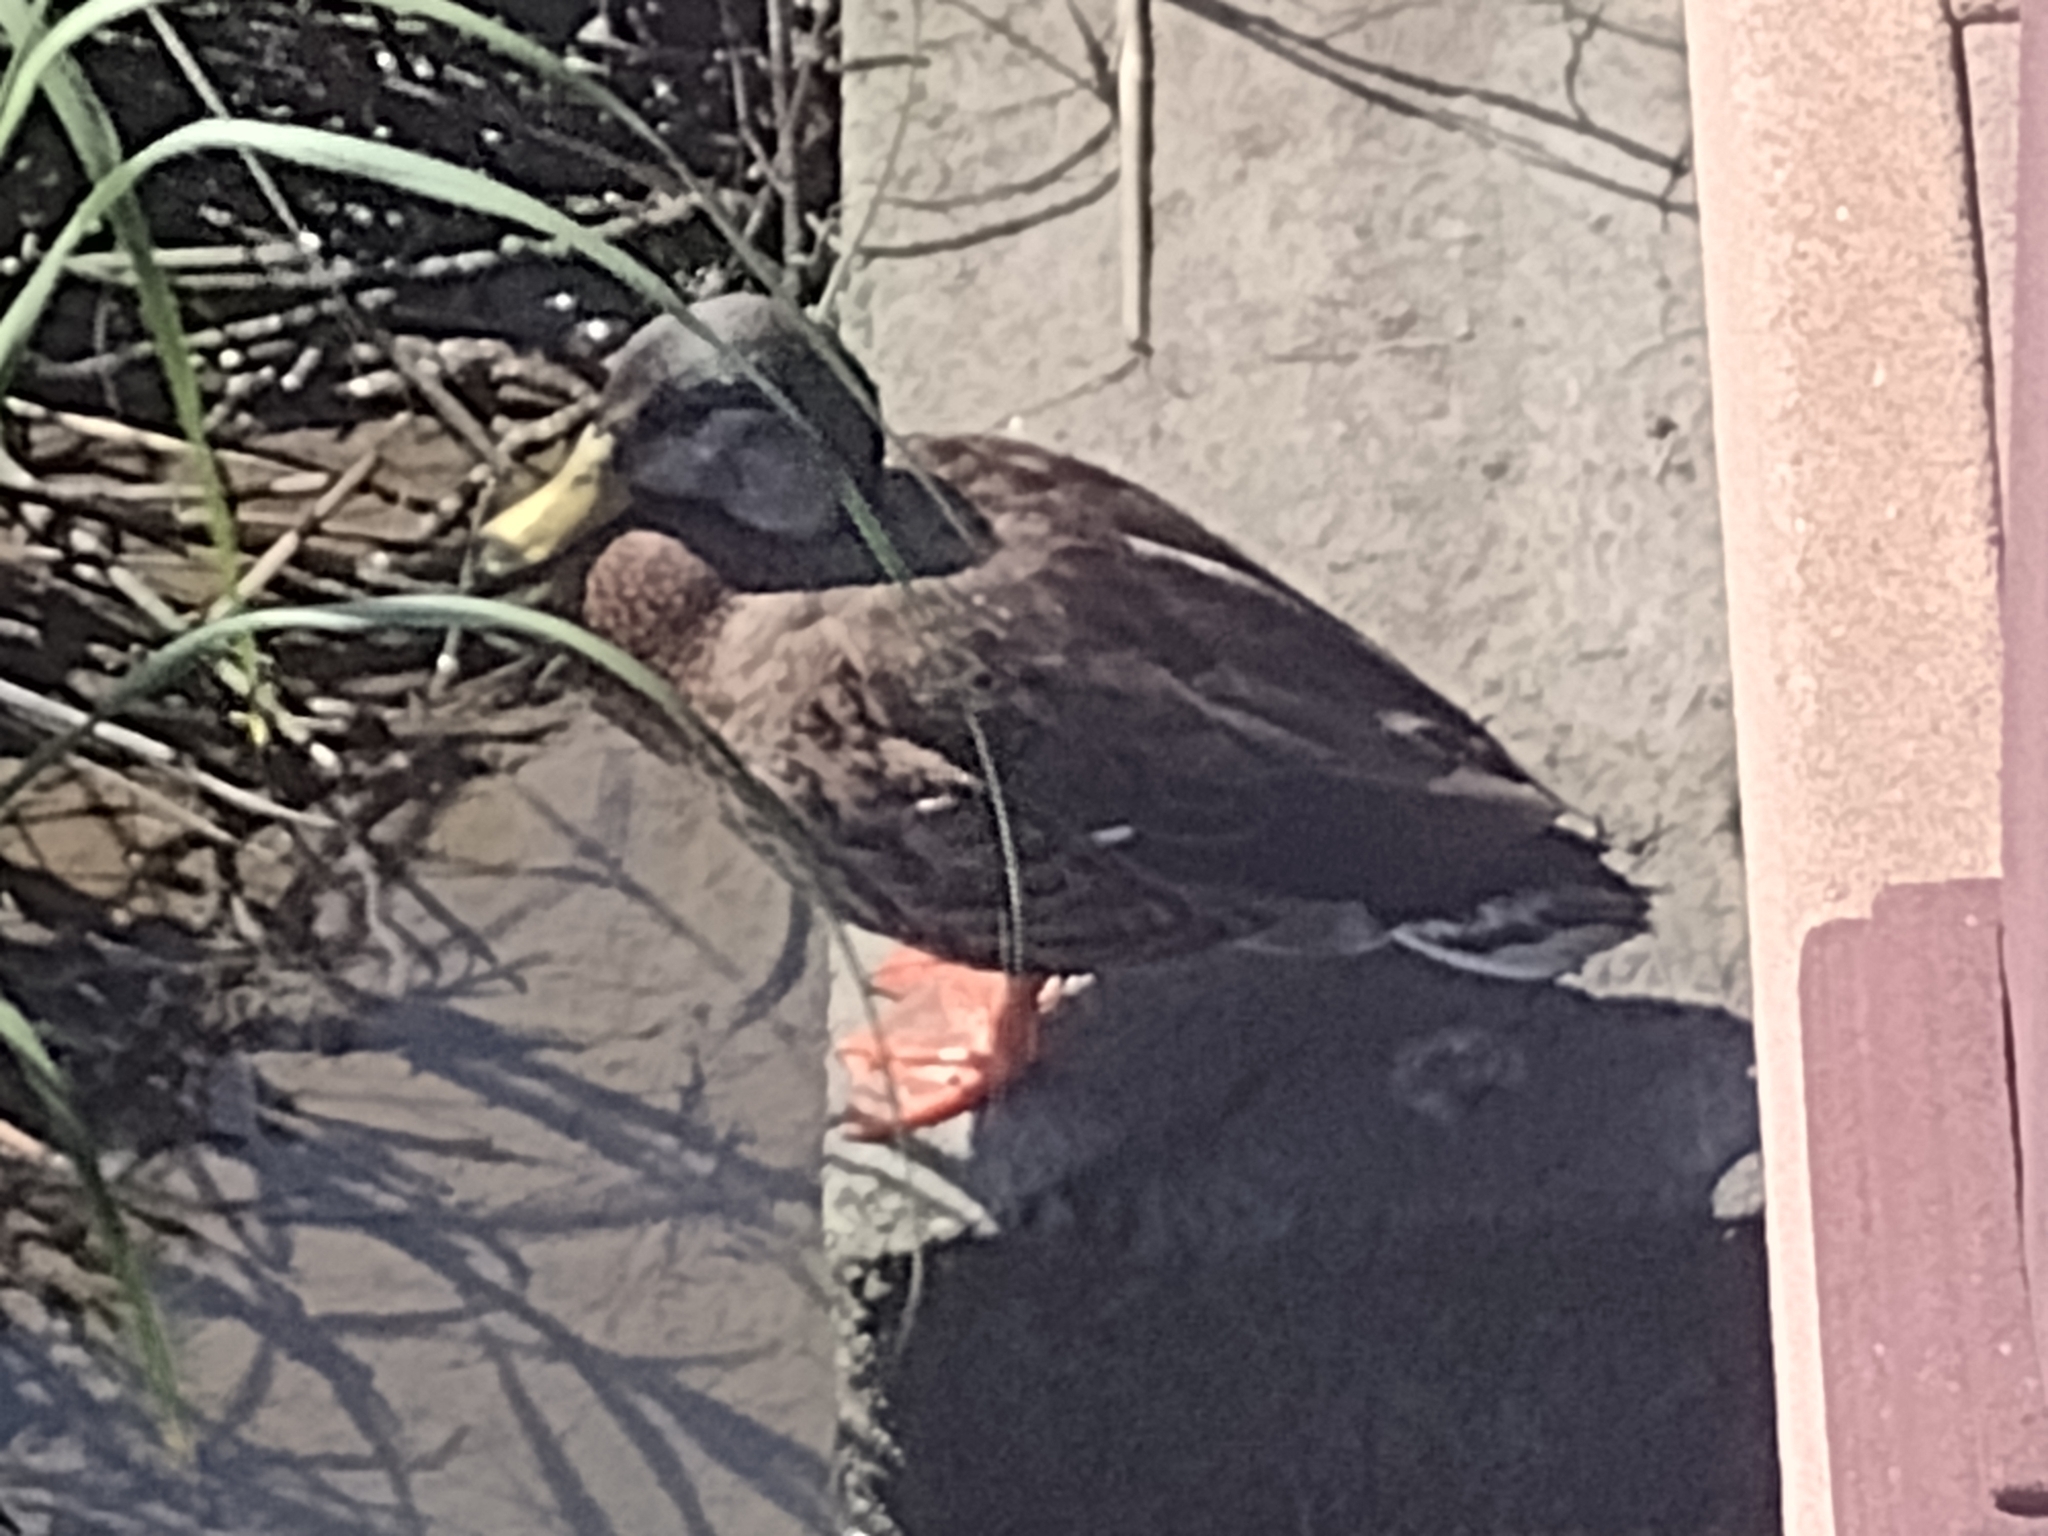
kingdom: Animalia
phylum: Chordata
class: Aves
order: Anseriformes
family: Anatidae
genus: Anas
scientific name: Anas platyrhynchos
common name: Mallard
